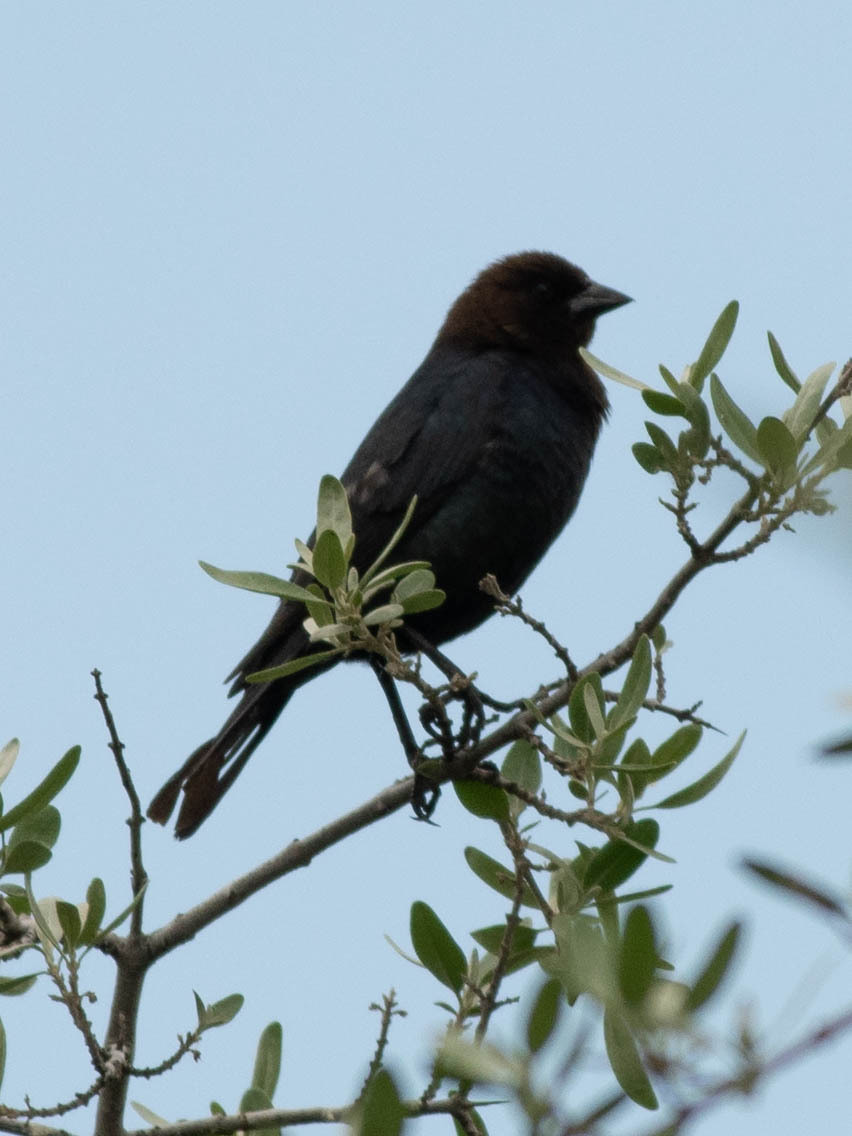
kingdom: Animalia
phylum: Chordata
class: Aves
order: Passeriformes
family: Icteridae
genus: Molothrus
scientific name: Molothrus ater
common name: Brown-headed cowbird
